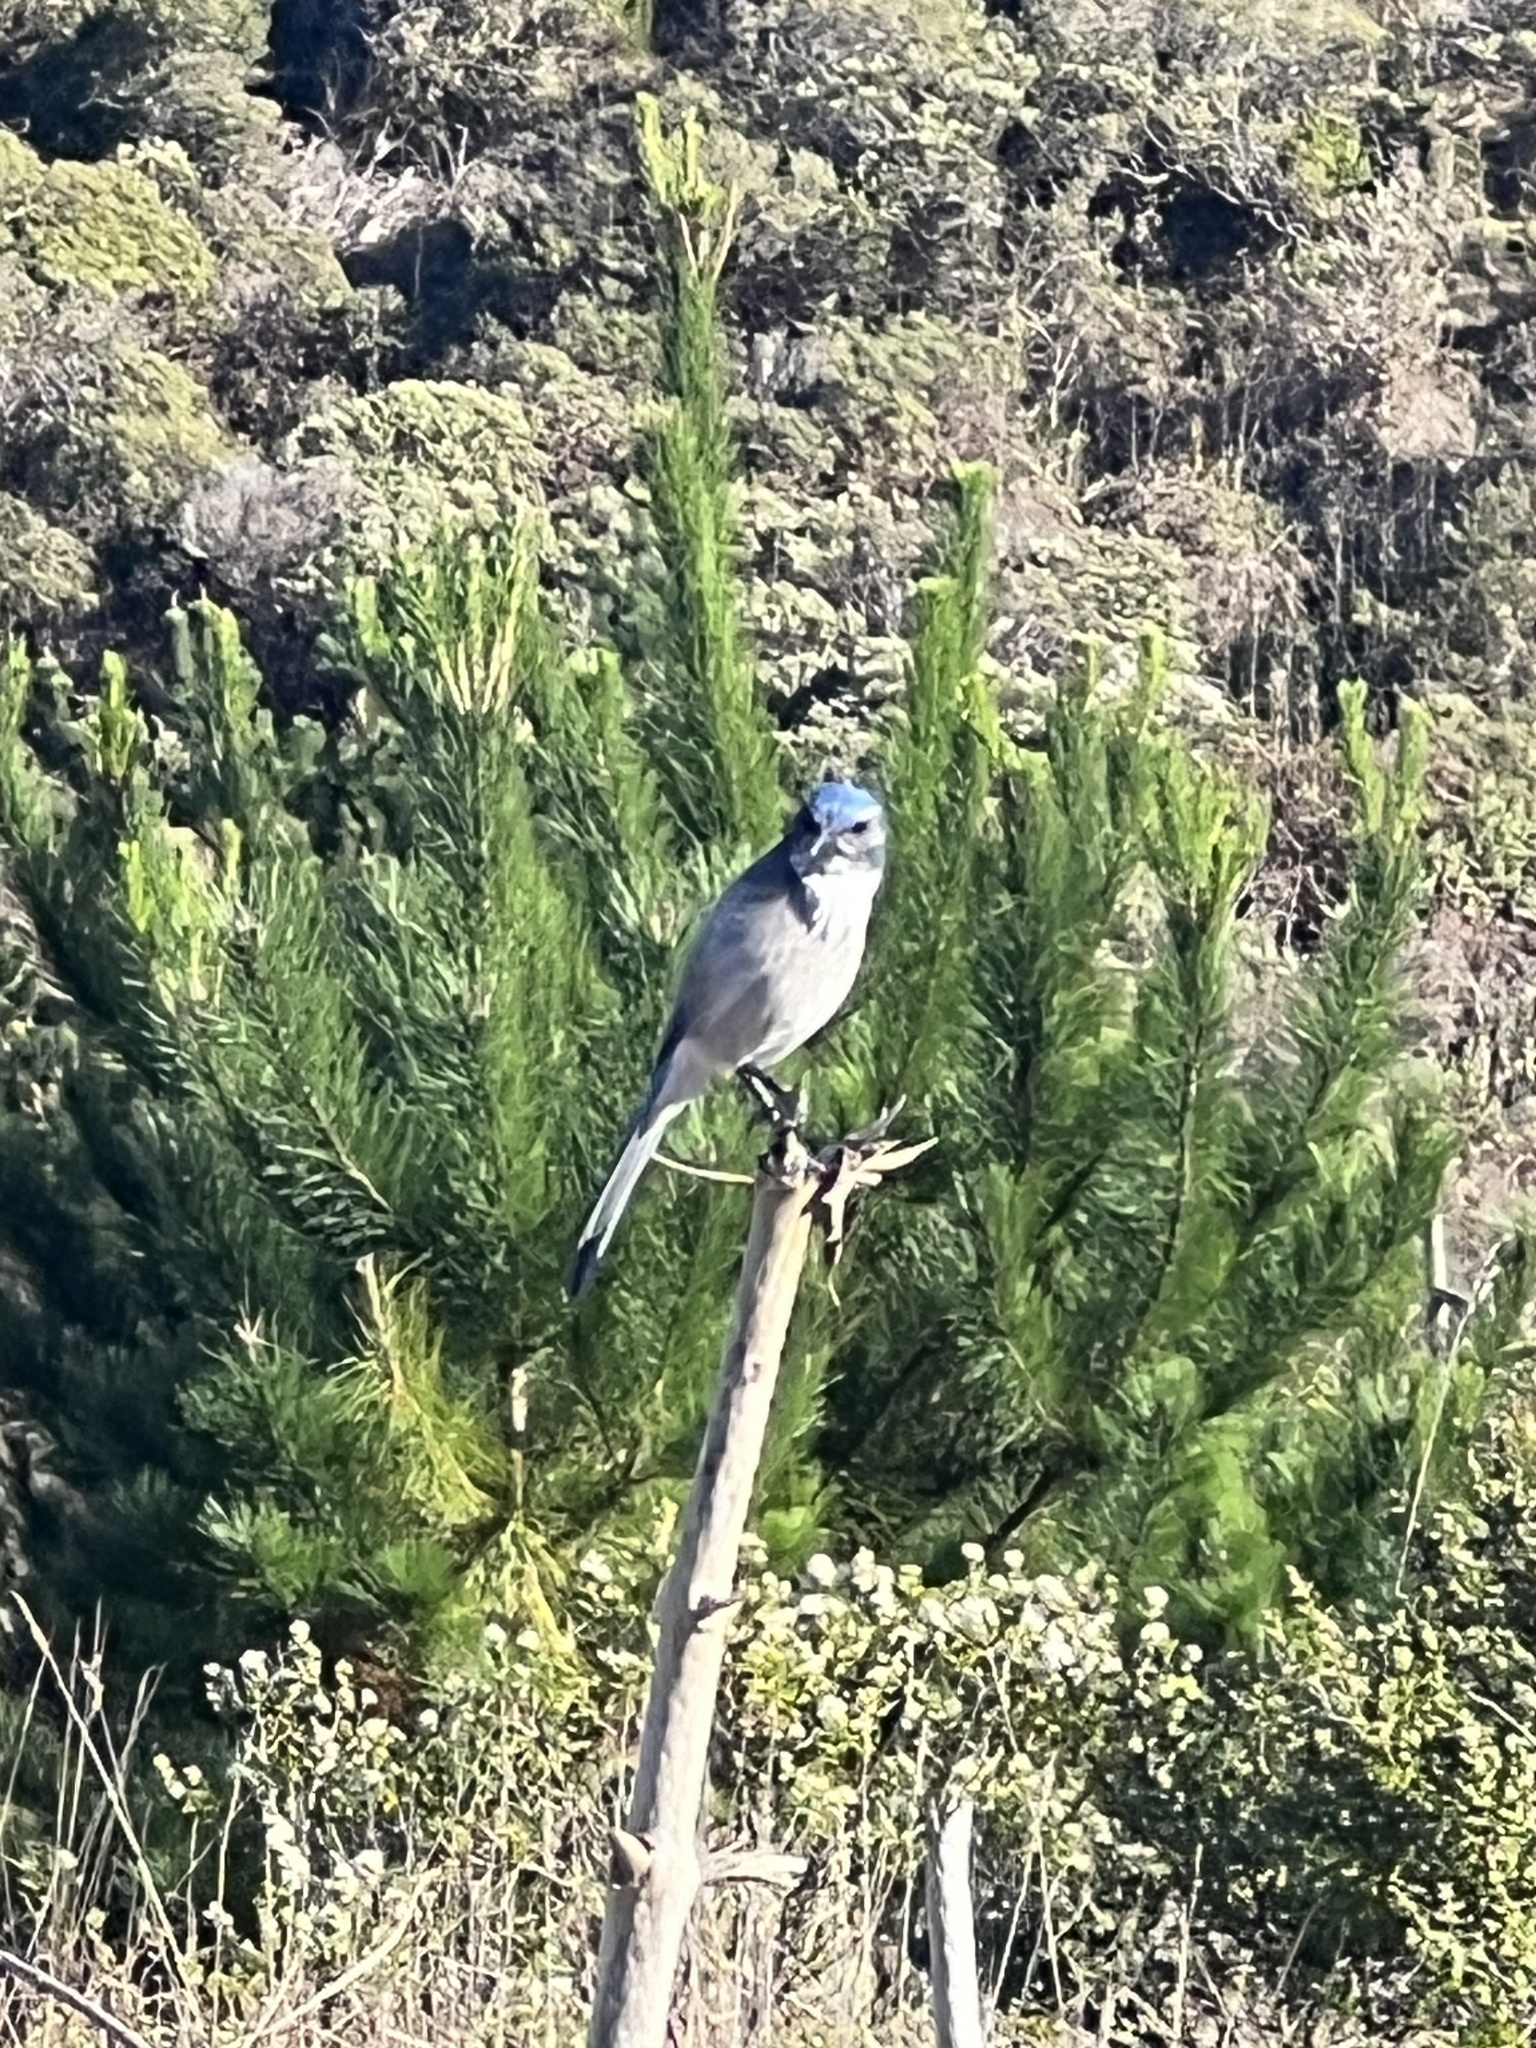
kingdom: Animalia
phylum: Chordata
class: Aves
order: Passeriformes
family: Corvidae
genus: Aphelocoma
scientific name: Aphelocoma californica
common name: California scrub-jay
